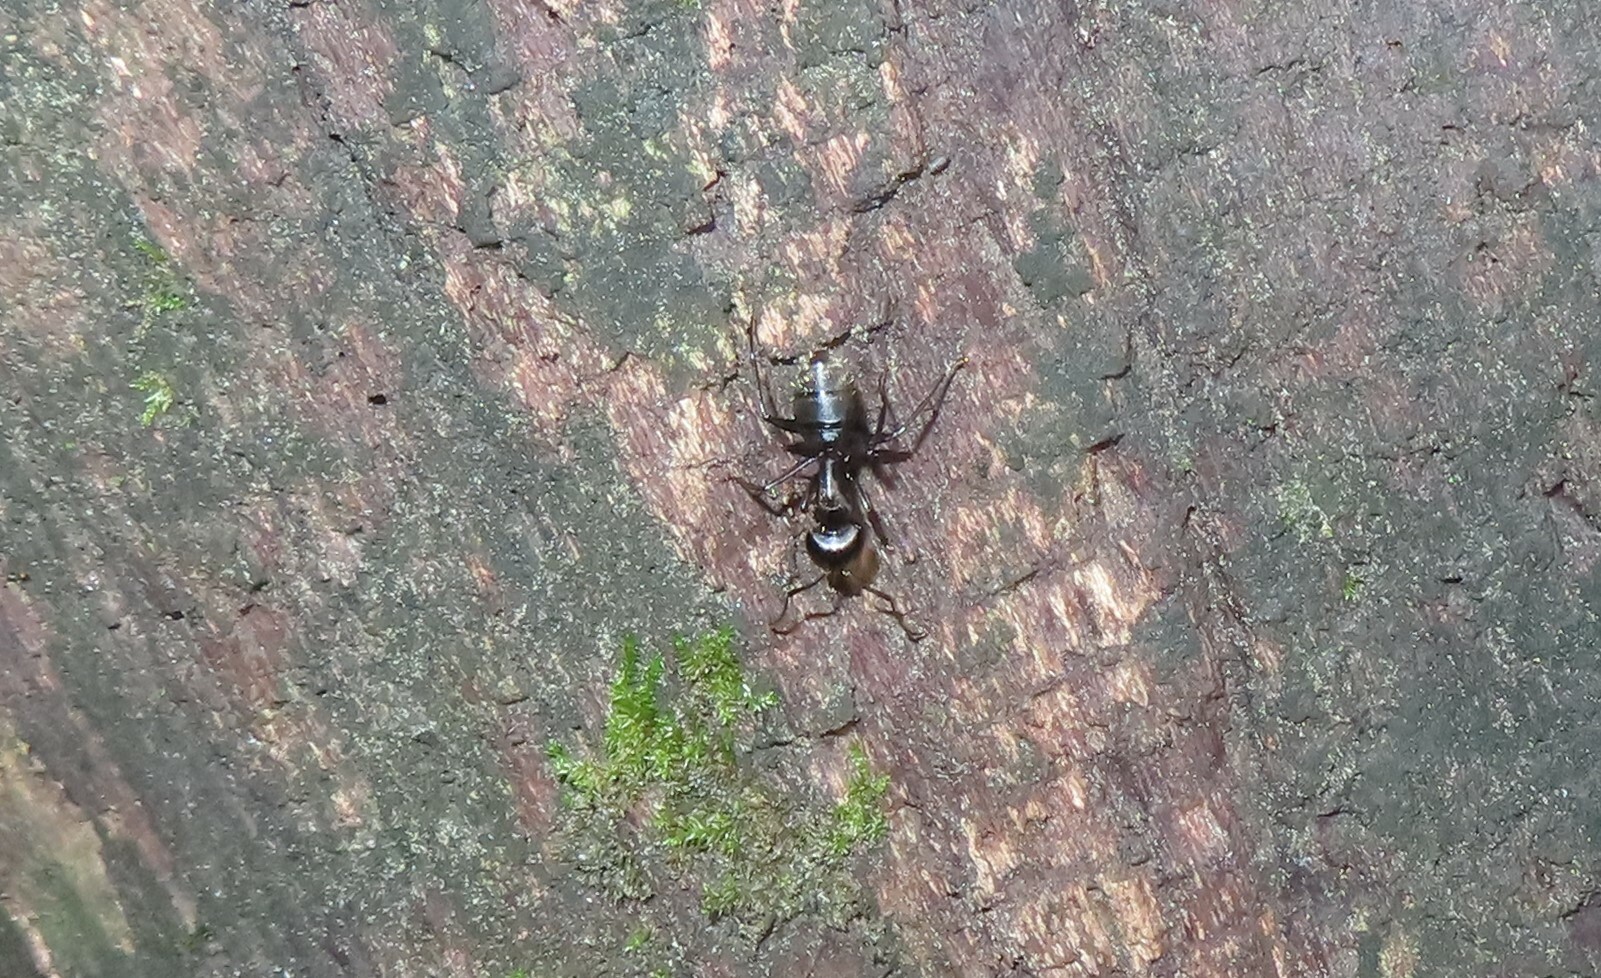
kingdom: Animalia
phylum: Arthropoda
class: Insecta
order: Hymenoptera
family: Formicidae
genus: Camponotus
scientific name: Camponotus pennsylvanicus
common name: Black carpenter ant
